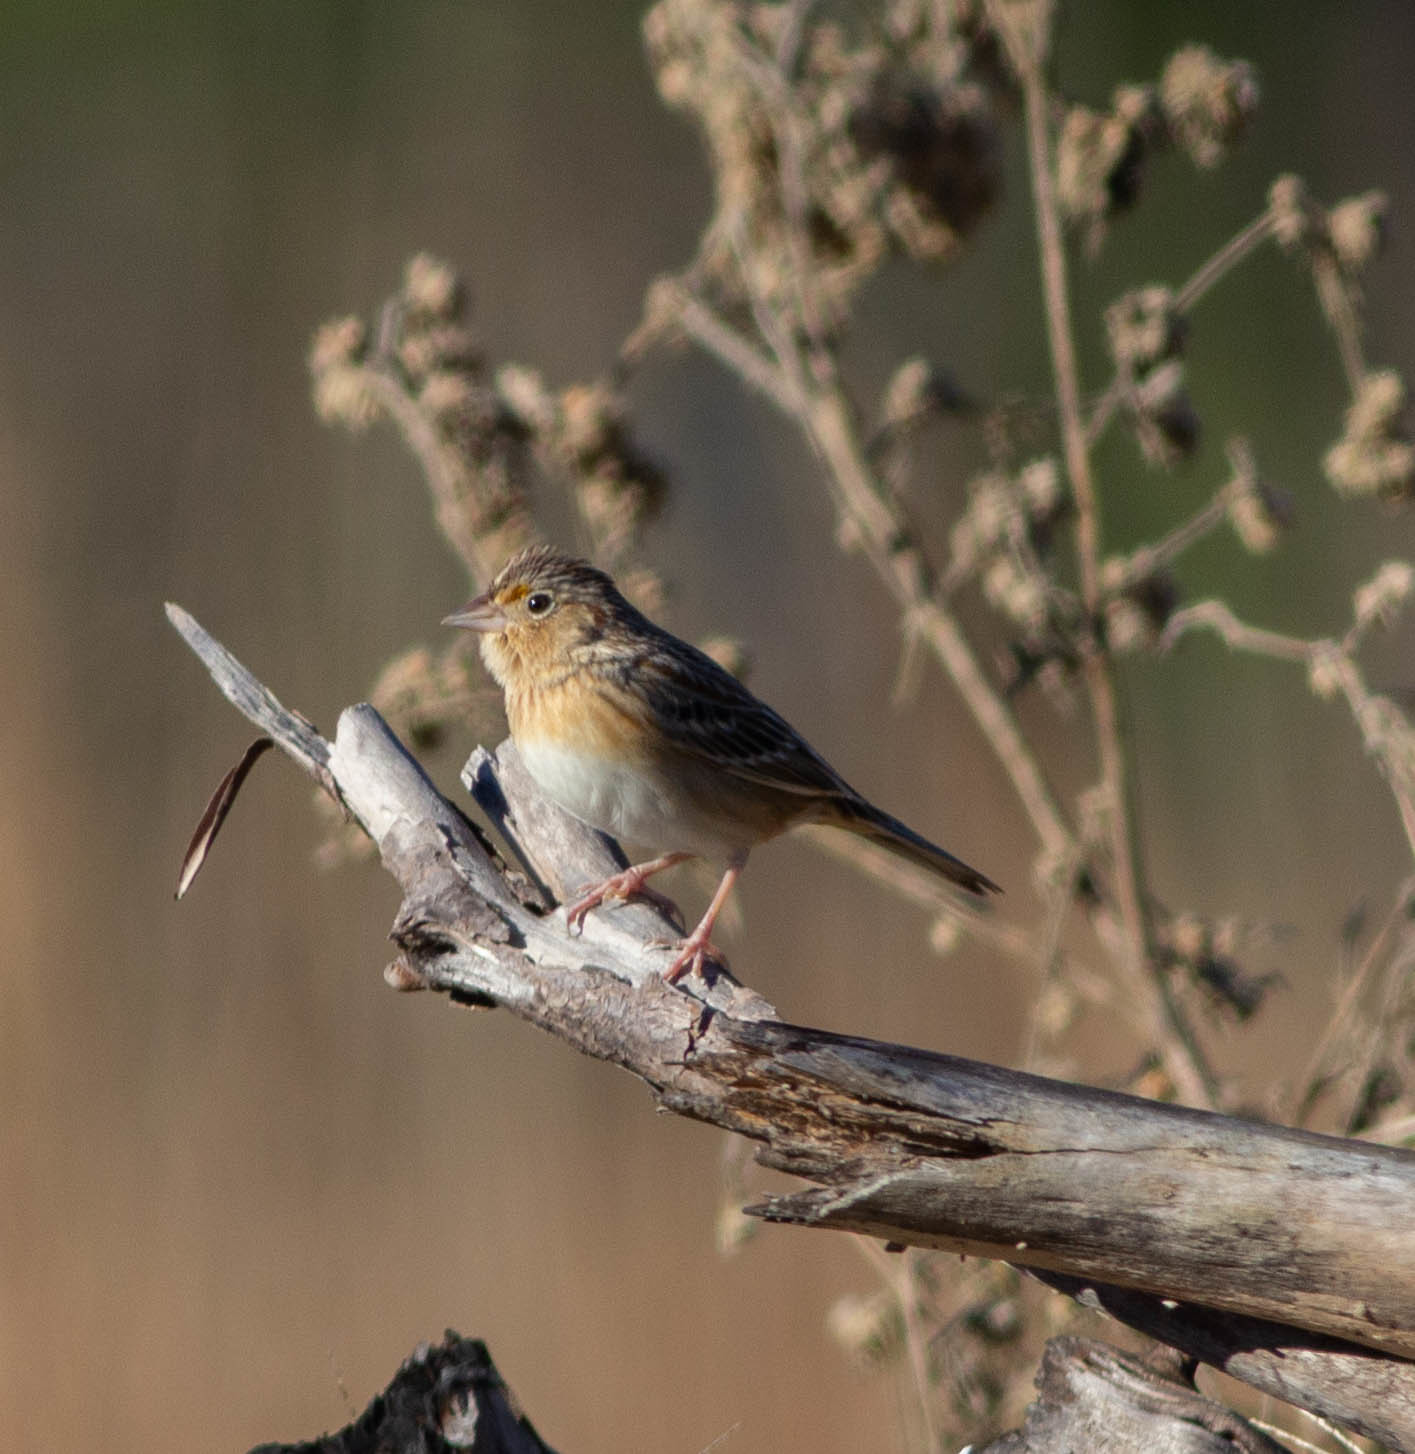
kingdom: Animalia
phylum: Chordata
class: Aves
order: Passeriformes
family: Passerellidae
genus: Ammodramus
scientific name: Ammodramus savannarum
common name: Grasshopper sparrow
